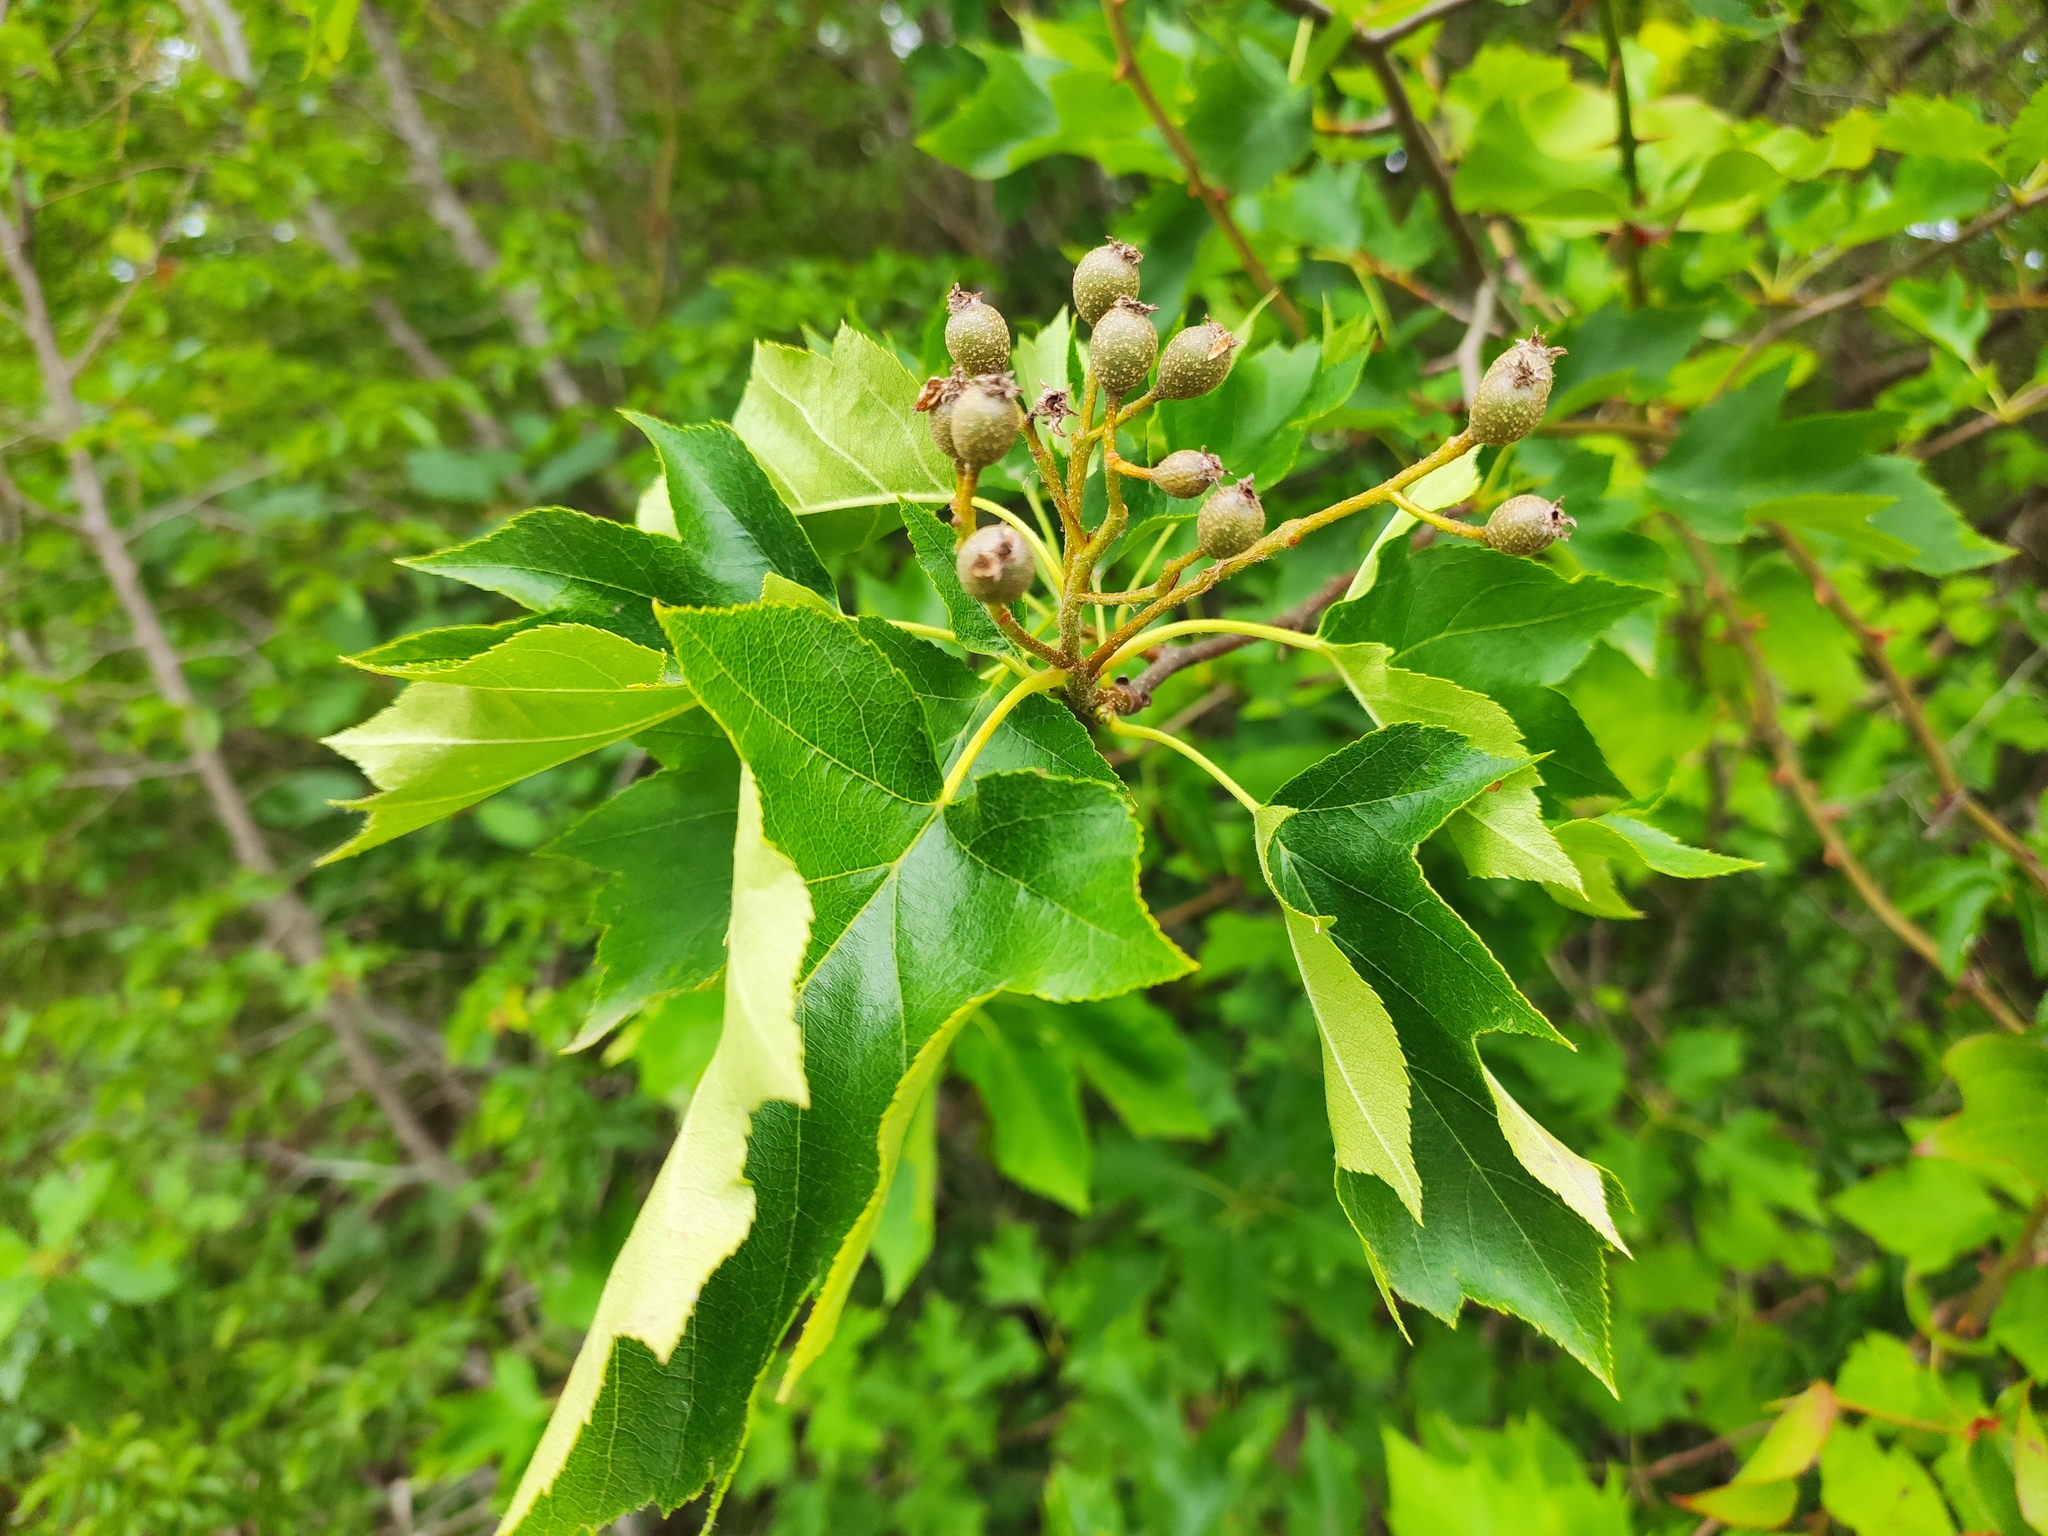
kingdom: Plantae
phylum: Tracheophyta
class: Magnoliopsida
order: Rosales
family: Rosaceae
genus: Torminalis
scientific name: Torminalis glaberrima
